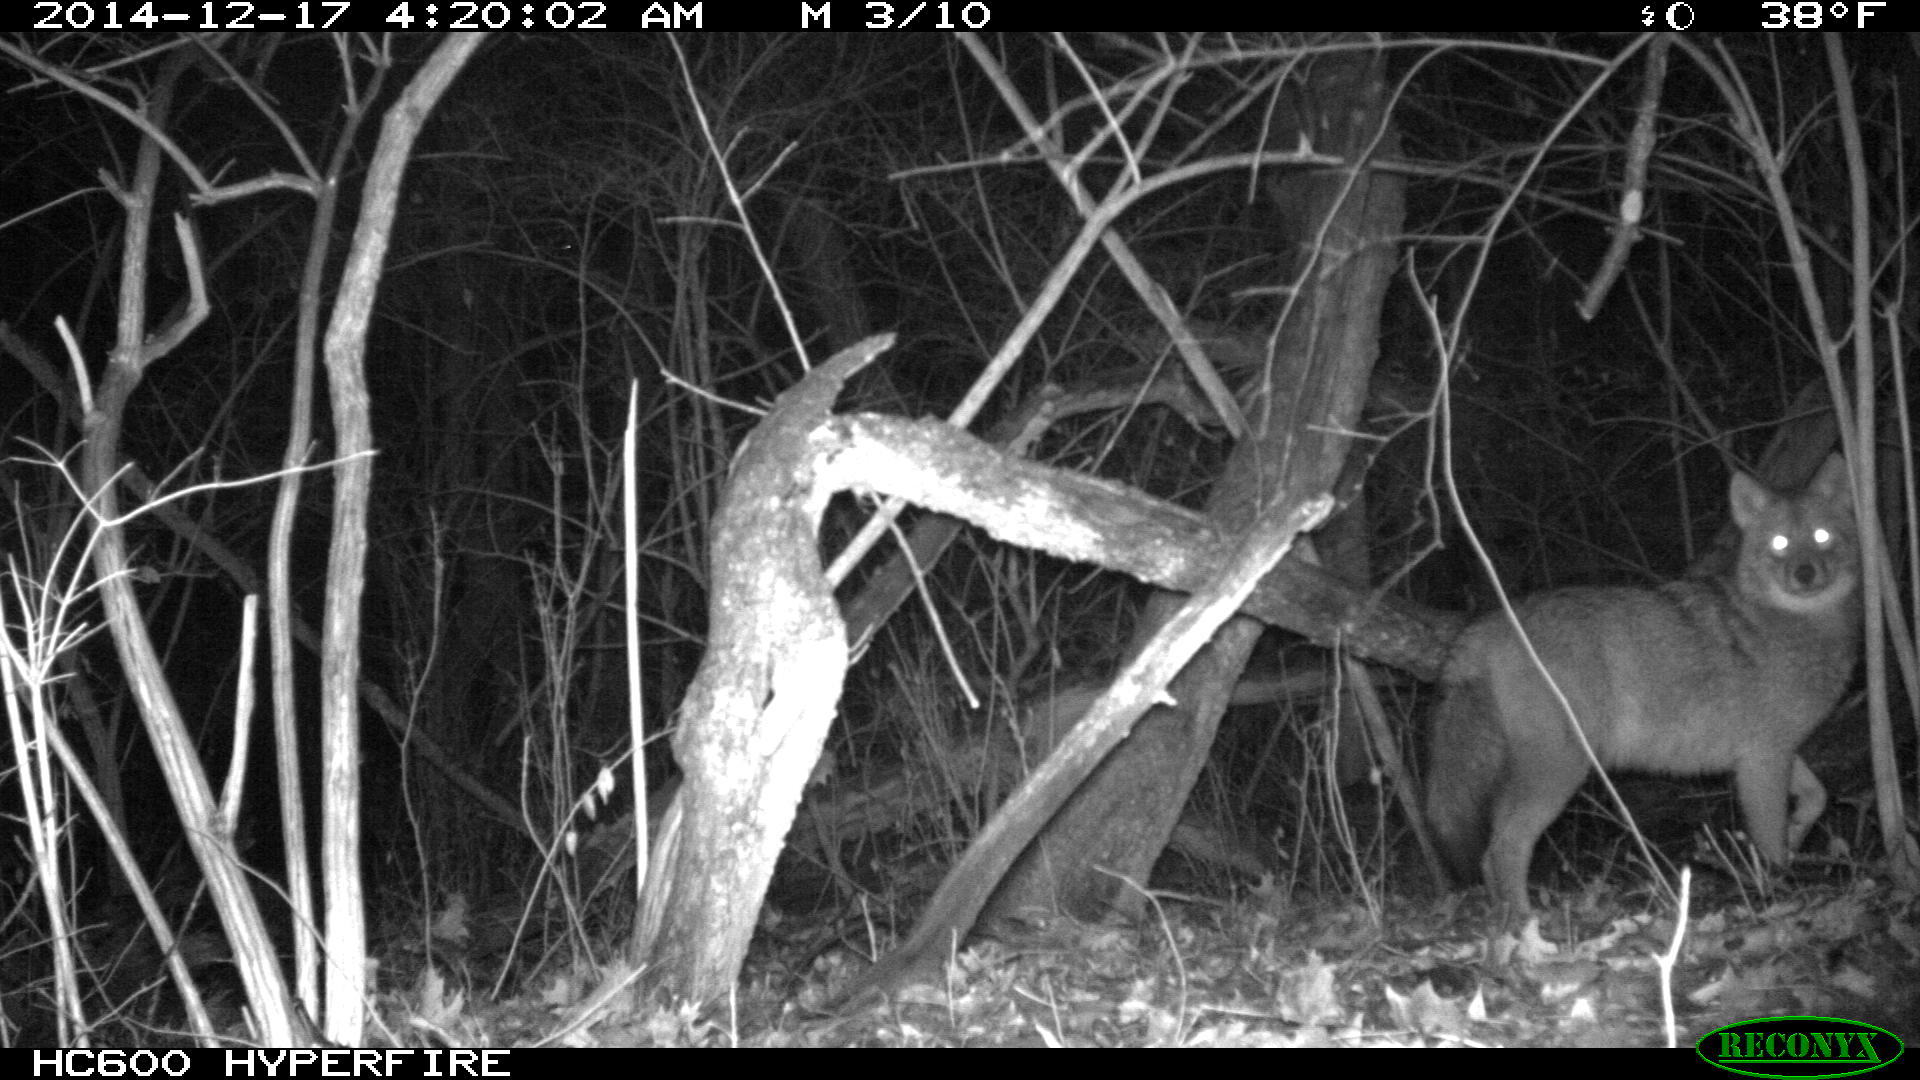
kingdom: Animalia
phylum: Chordata
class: Mammalia
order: Carnivora
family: Canidae
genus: Canis
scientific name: Canis latrans
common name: Coyote
